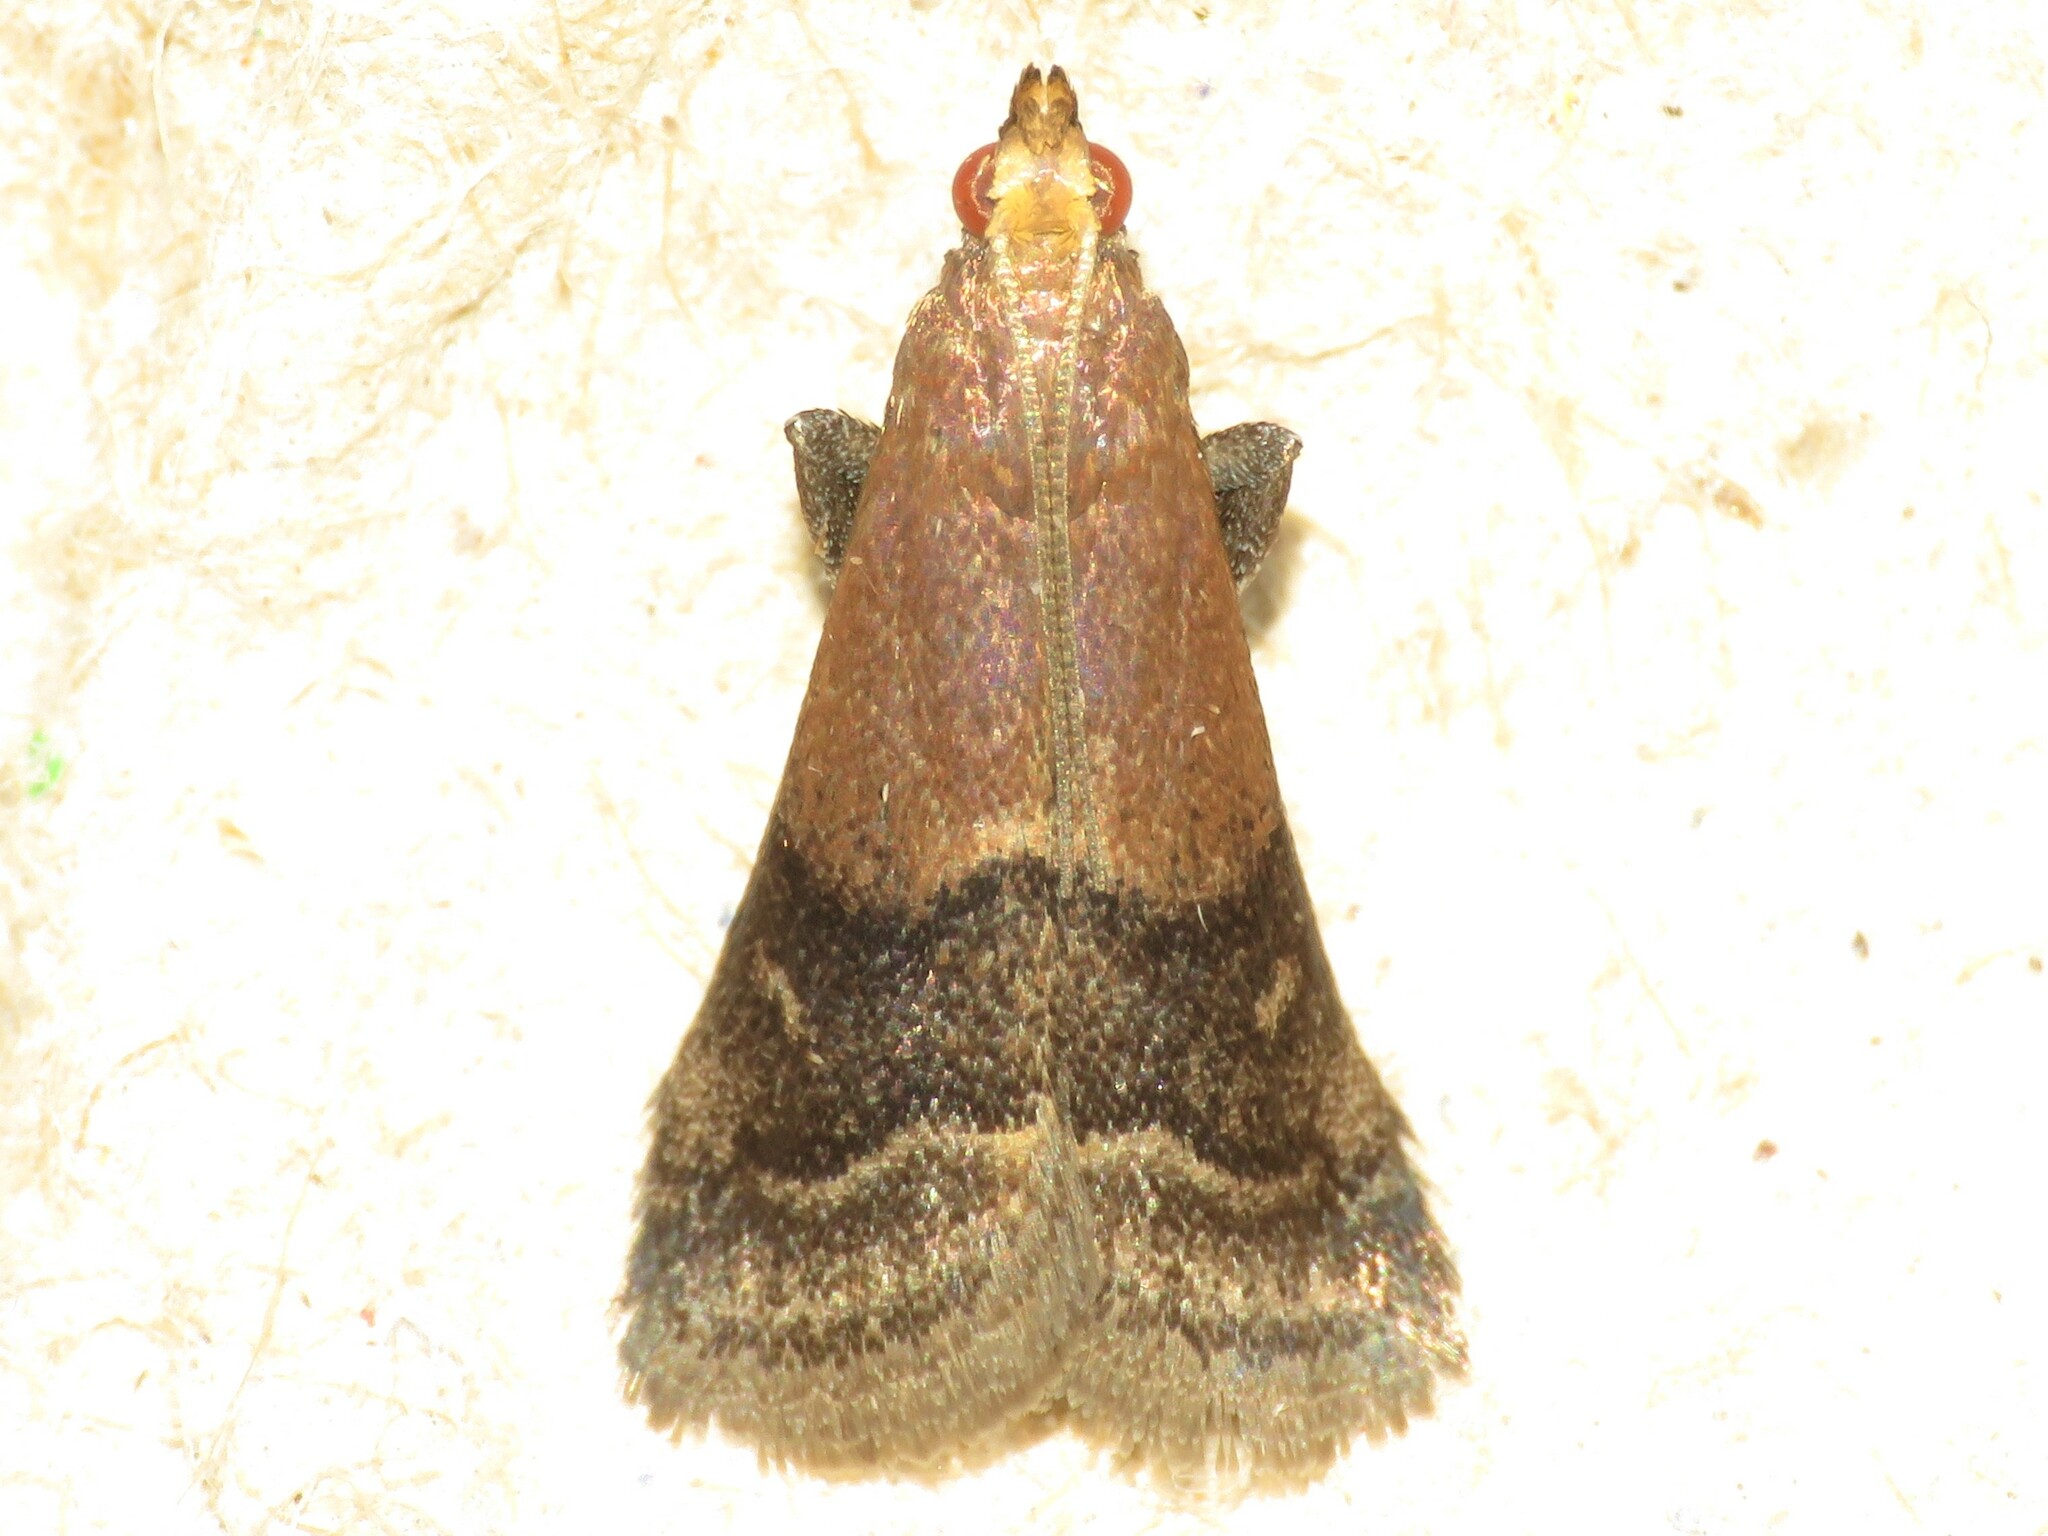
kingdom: Animalia
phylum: Arthropoda
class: Insecta
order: Lepidoptera
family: Pyralidae
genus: Eulogia
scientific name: Eulogia ochrifrontella
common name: Broad-banded eulogia moth
